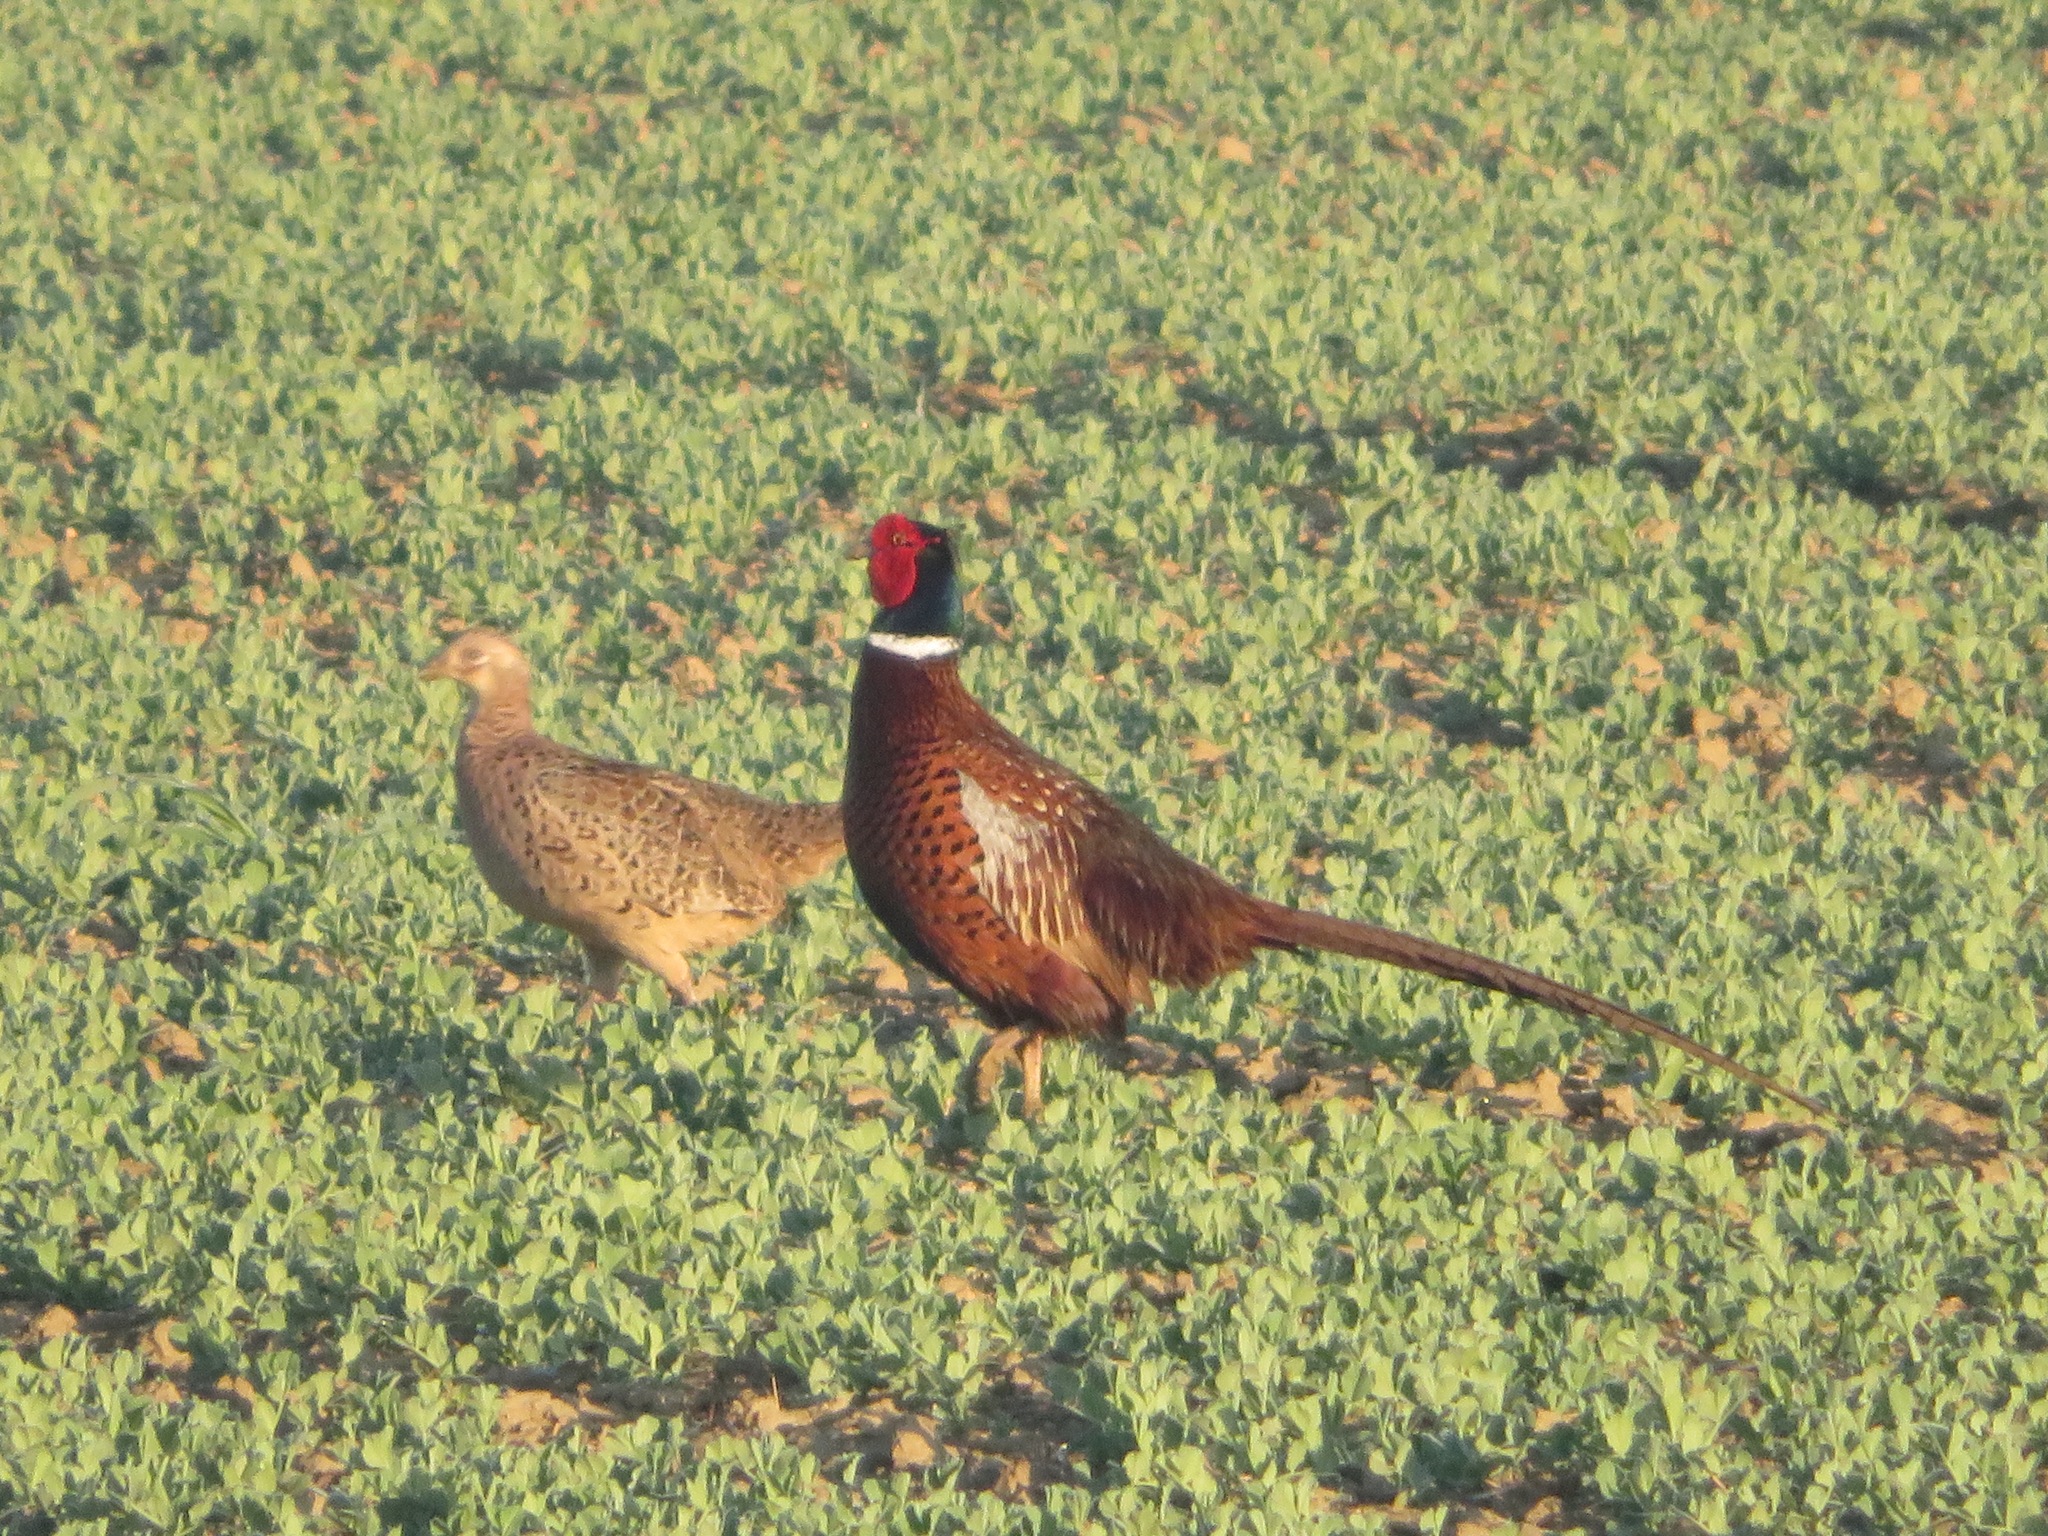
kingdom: Animalia
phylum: Chordata
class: Aves
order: Galliformes
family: Phasianidae
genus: Phasianus
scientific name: Phasianus colchicus
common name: Common pheasant
